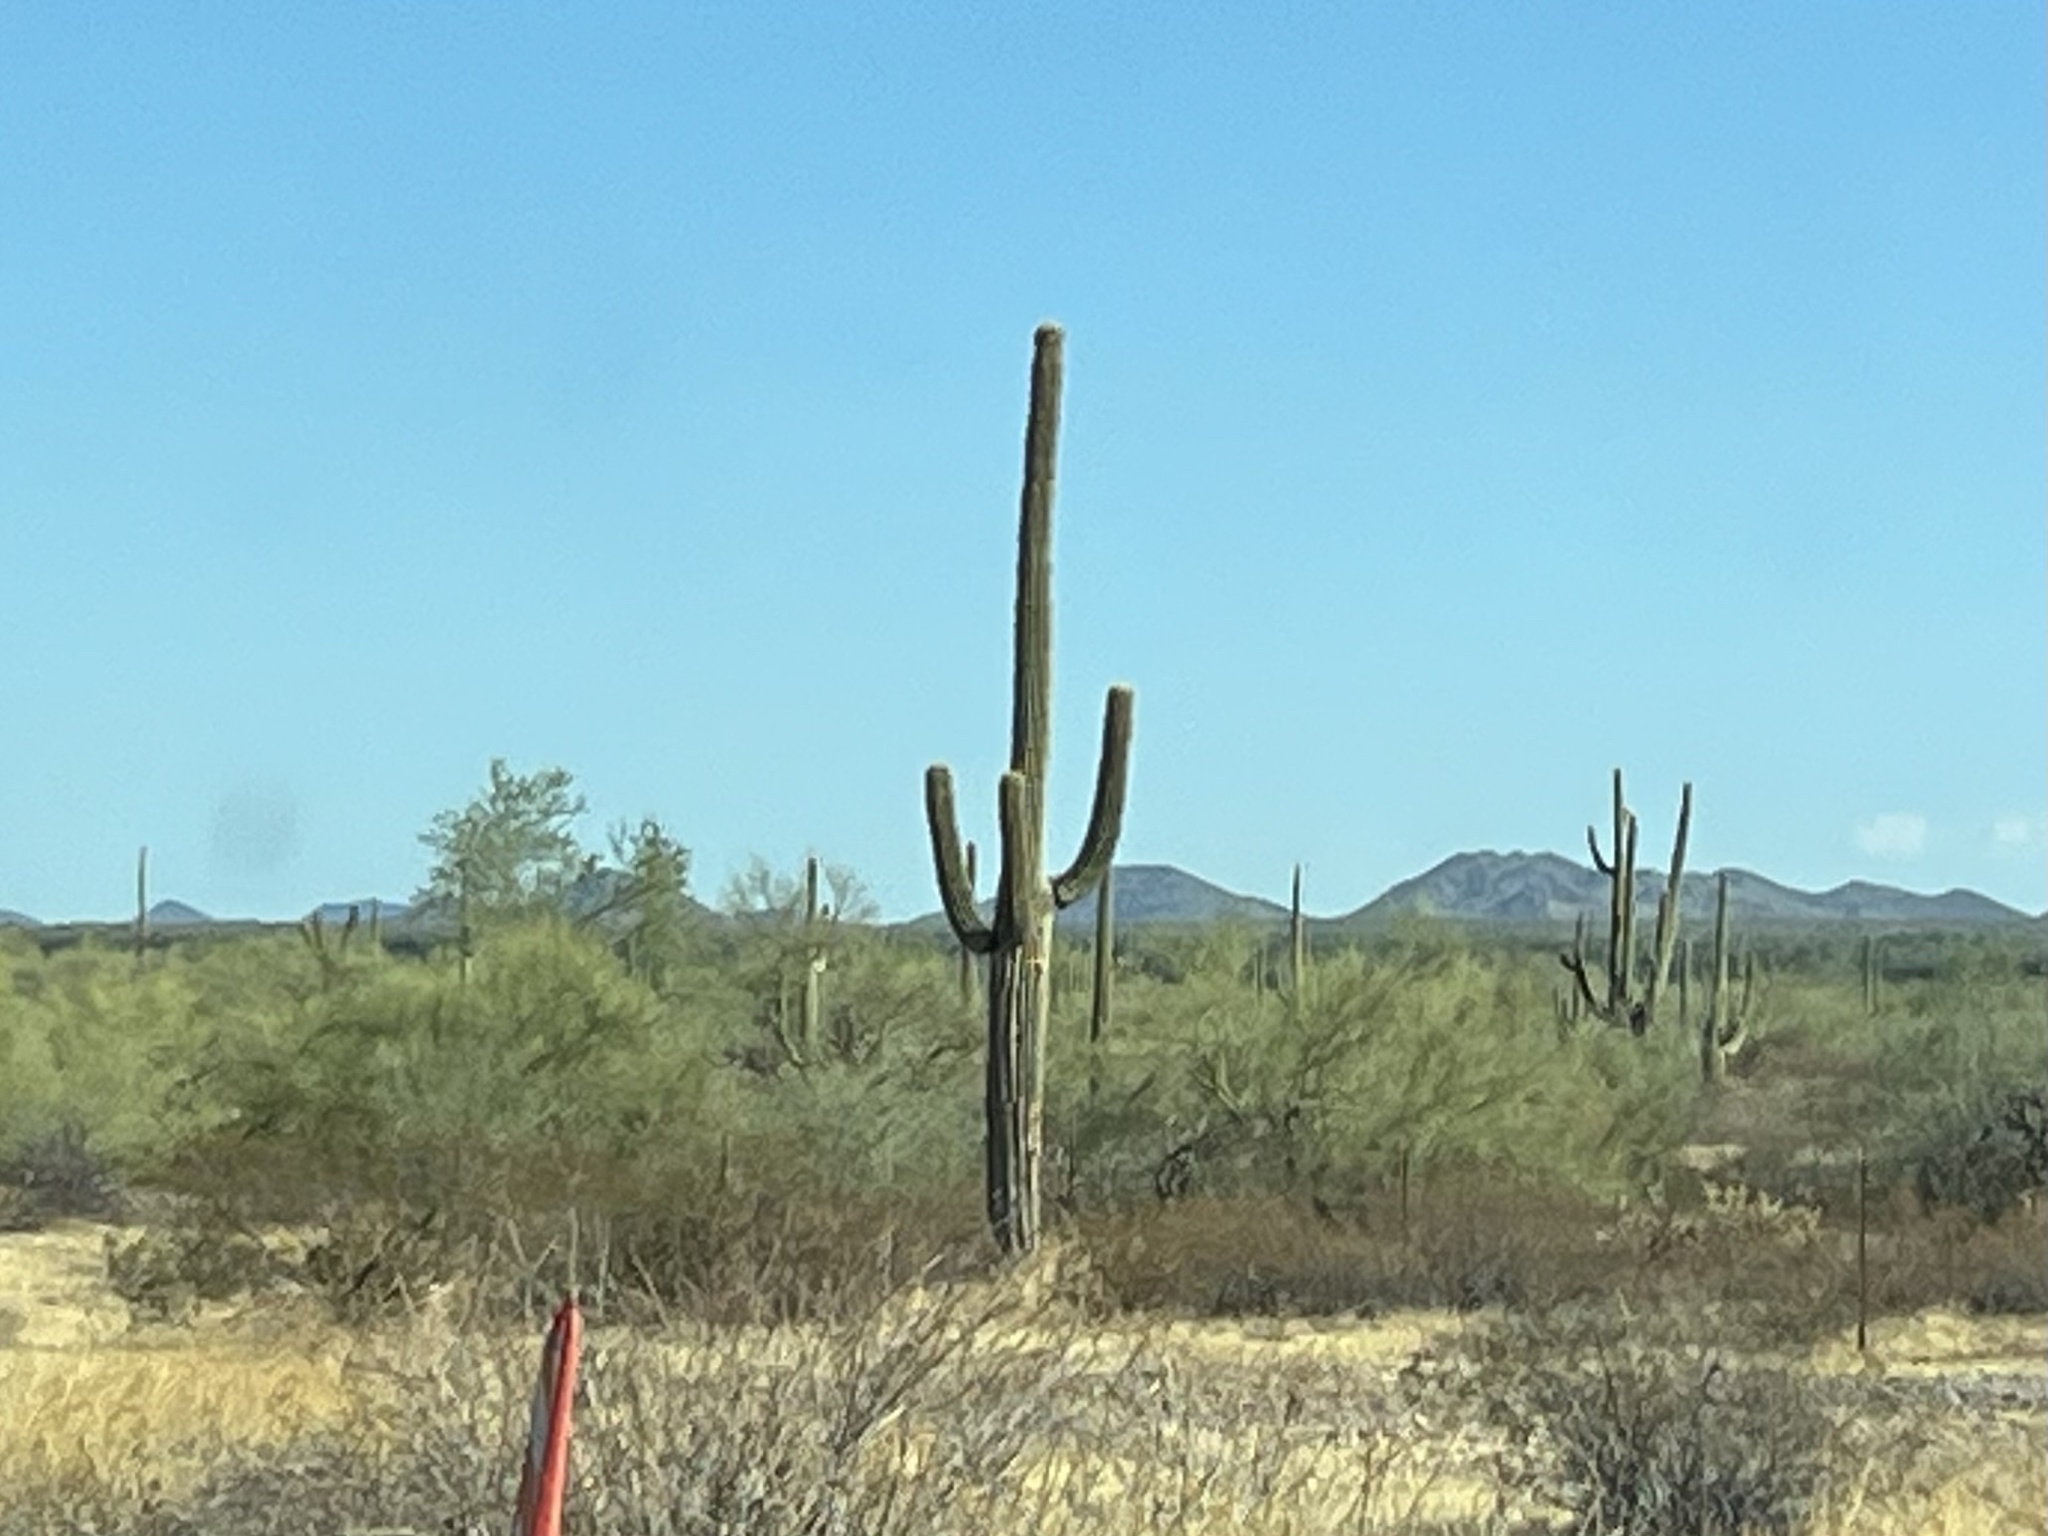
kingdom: Plantae
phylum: Tracheophyta
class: Magnoliopsida
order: Caryophyllales
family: Cactaceae
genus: Carnegiea
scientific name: Carnegiea gigantea
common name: Saguaro
